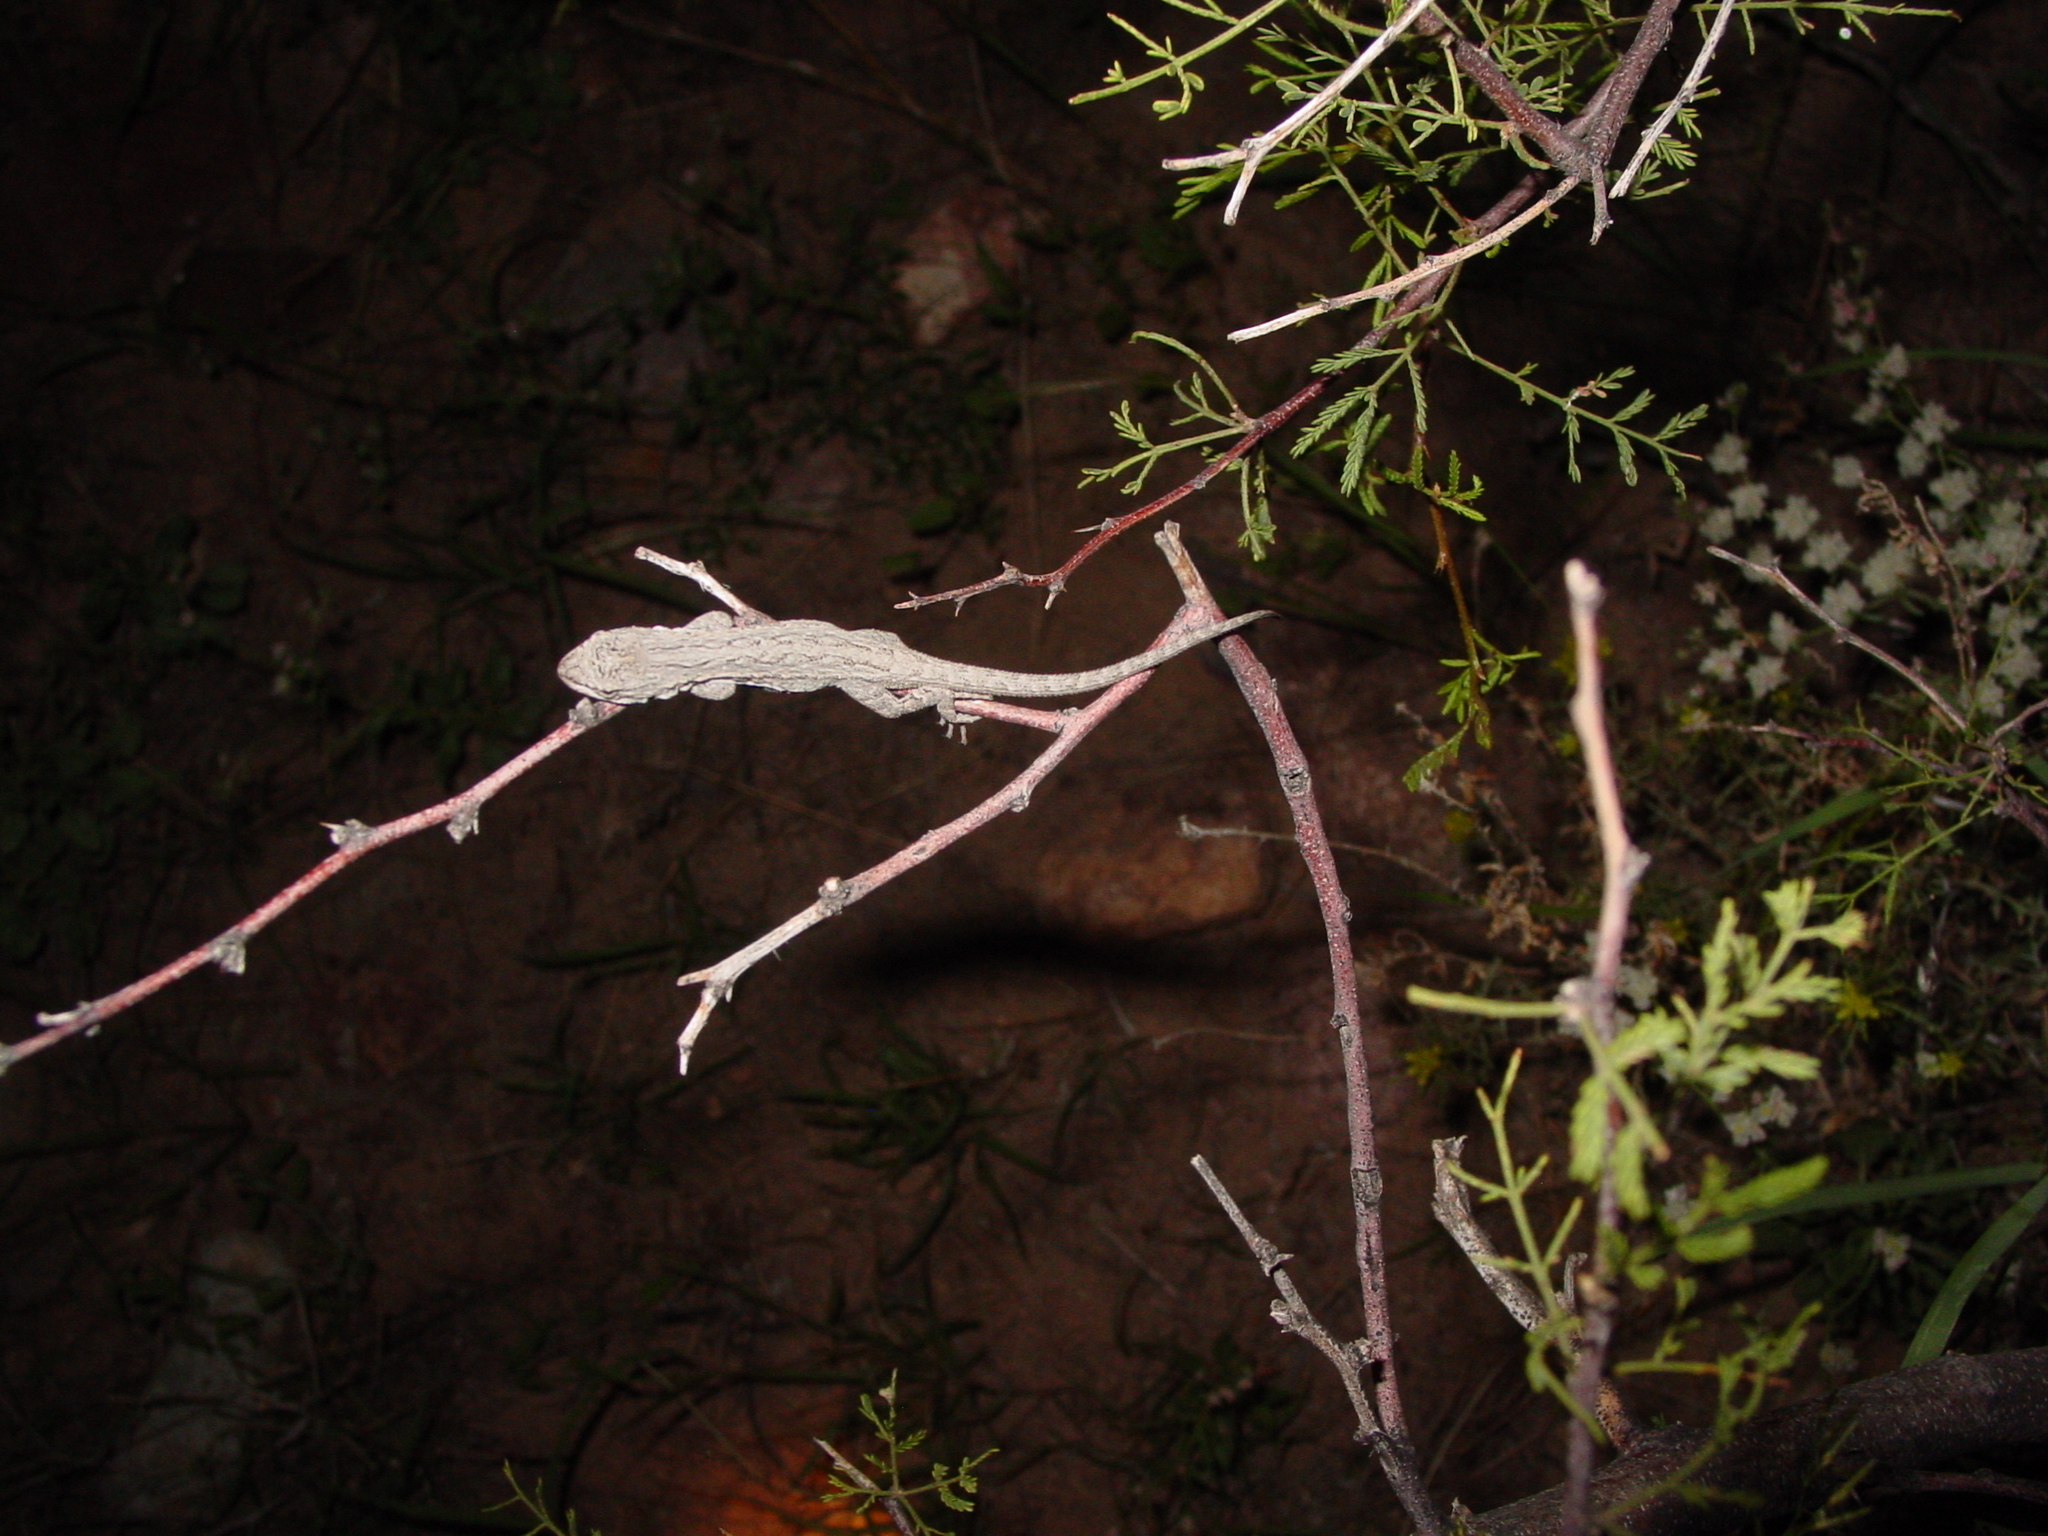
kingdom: Animalia
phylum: Chordata
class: Squamata
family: Phrynosomatidae
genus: Urosaurus
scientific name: Urosaurus ornatus
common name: Ornate tree lizard
